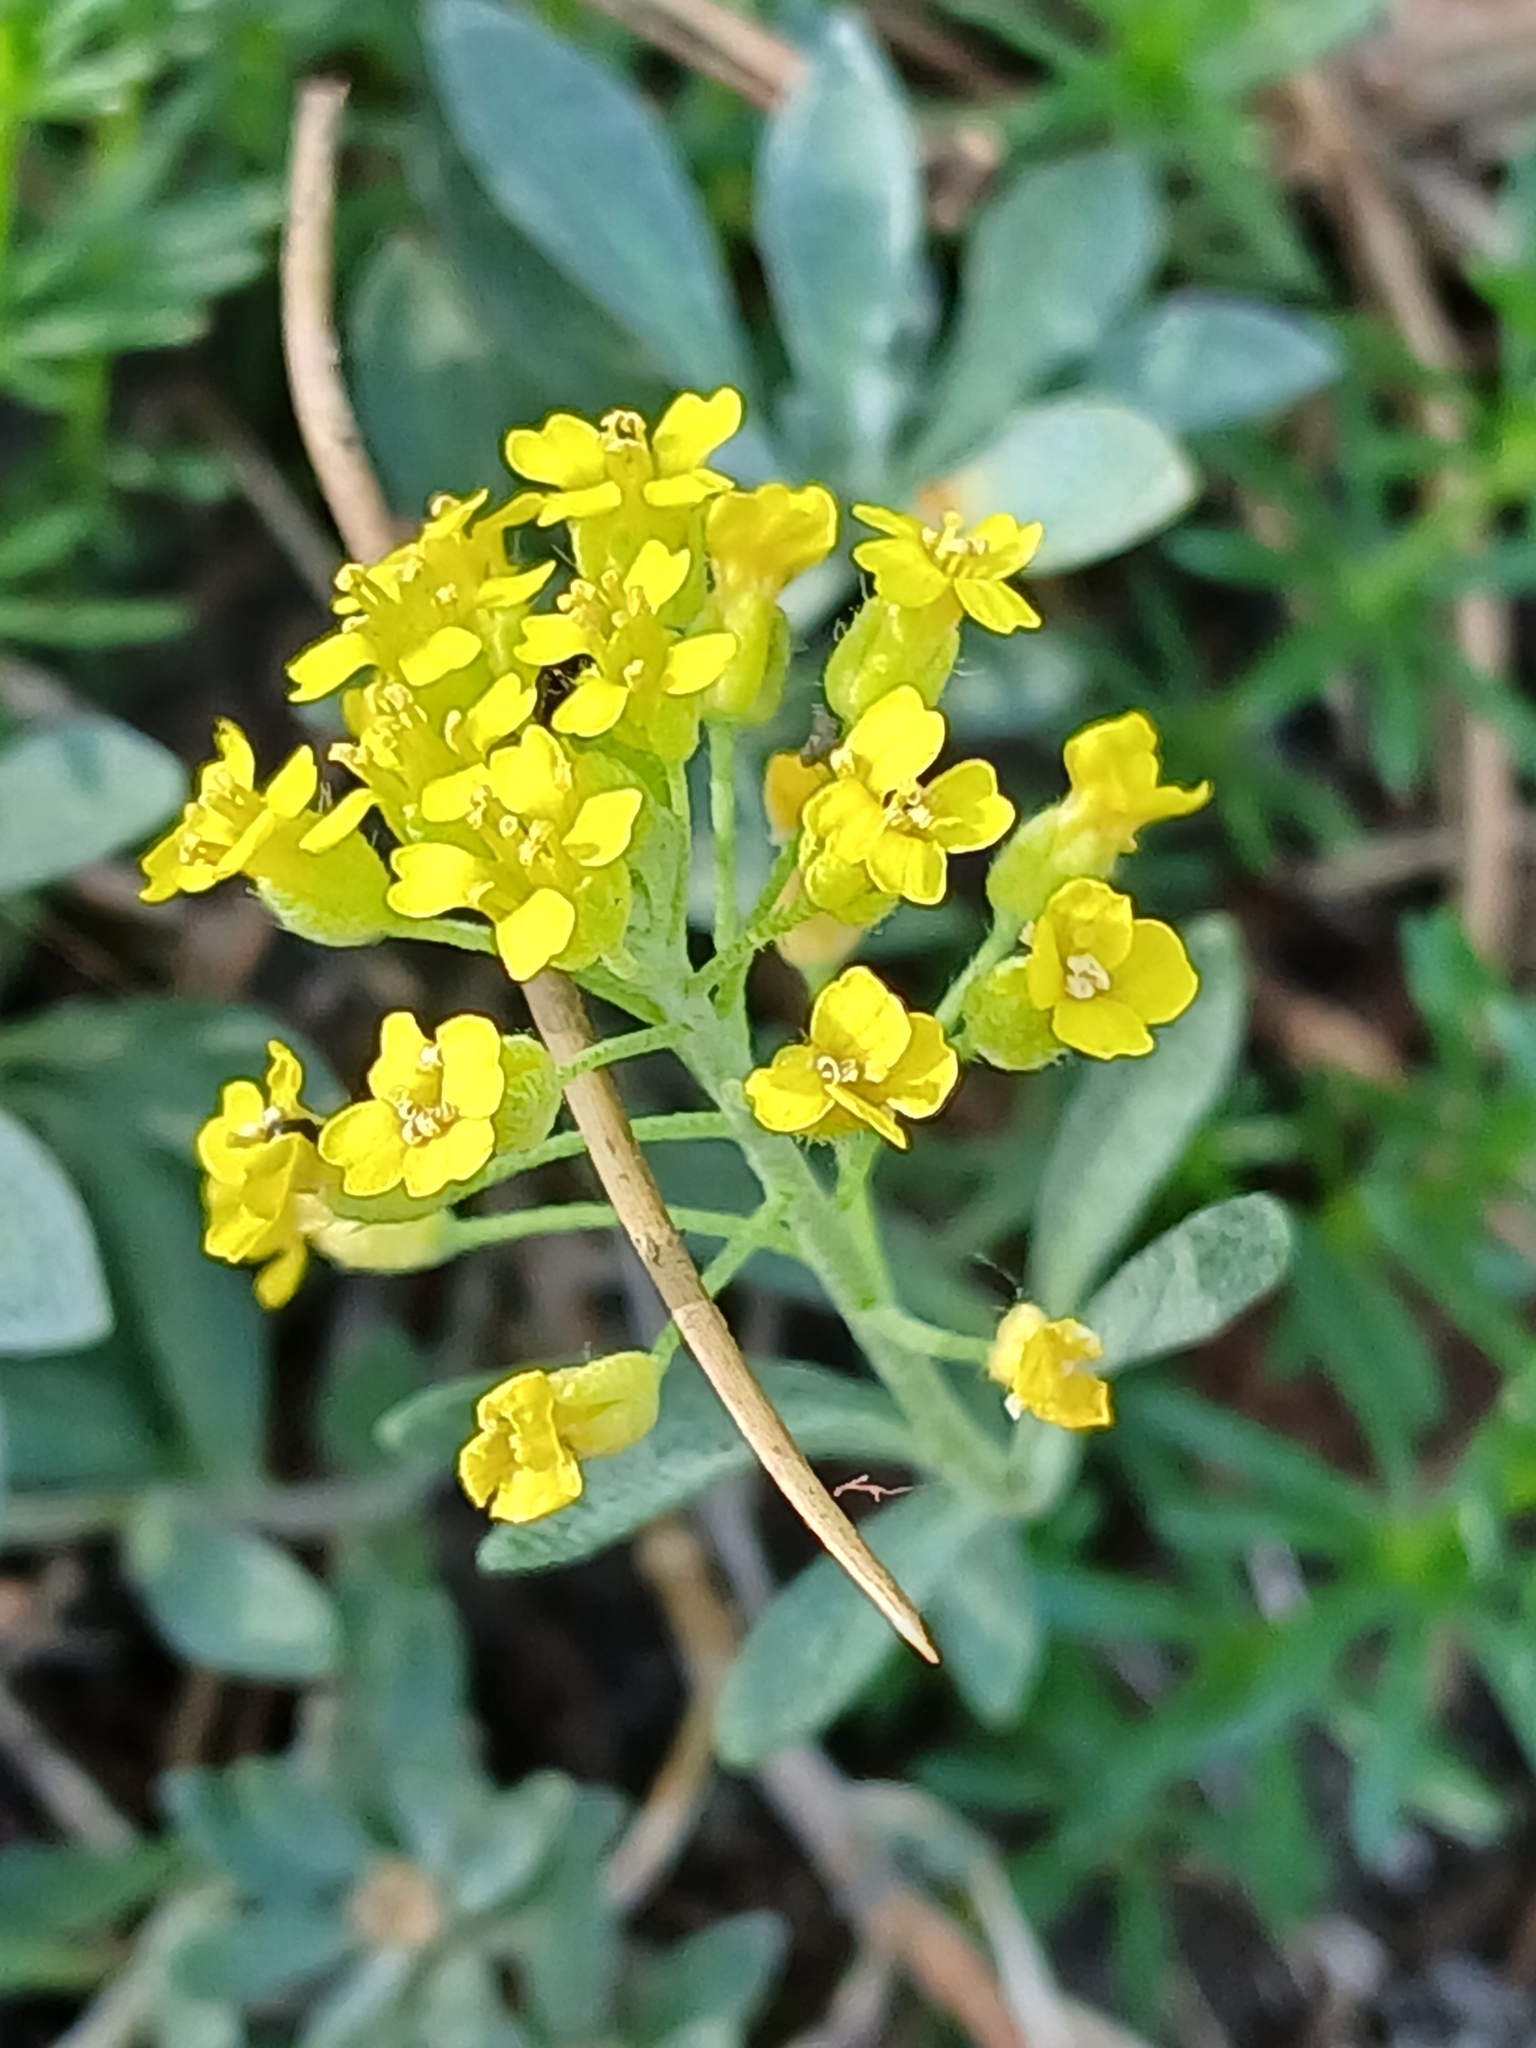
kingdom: Plantae
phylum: Tracheophyta
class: Magnoliopsida
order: Brassicales
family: Brassicaceae
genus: Alyssum
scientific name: Alyssum gmelinii
